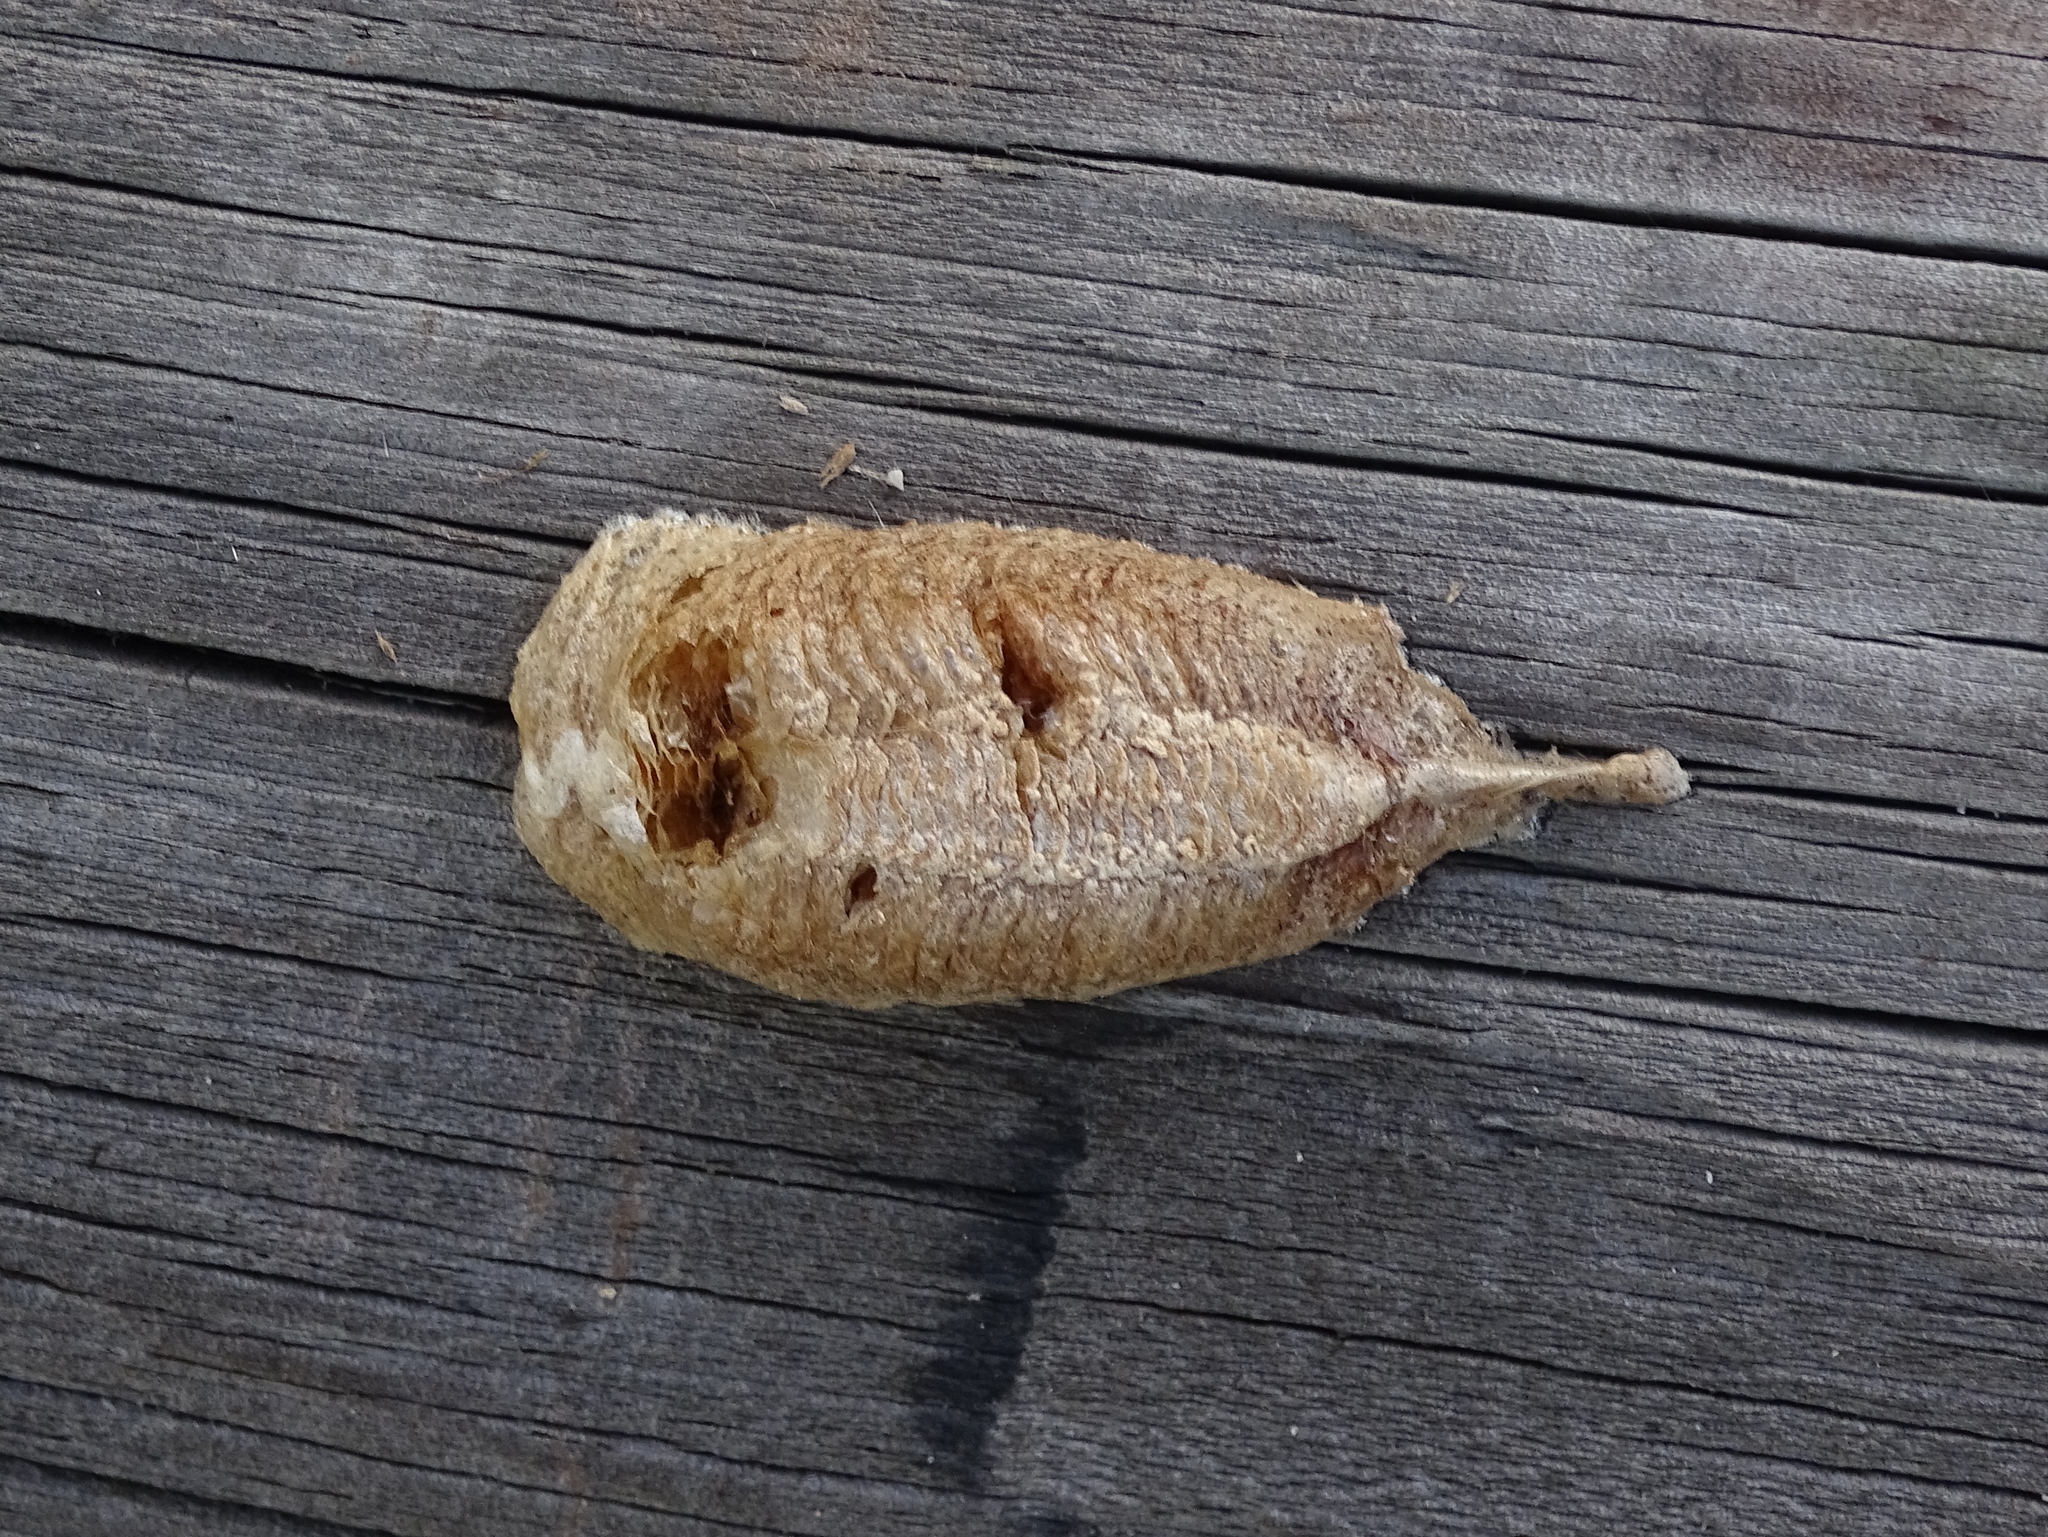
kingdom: Animalia
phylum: Arthropoda
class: Insecta
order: Mantodea
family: Mantidae
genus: Mantis
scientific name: Mantis religiosa
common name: Praying mantis
